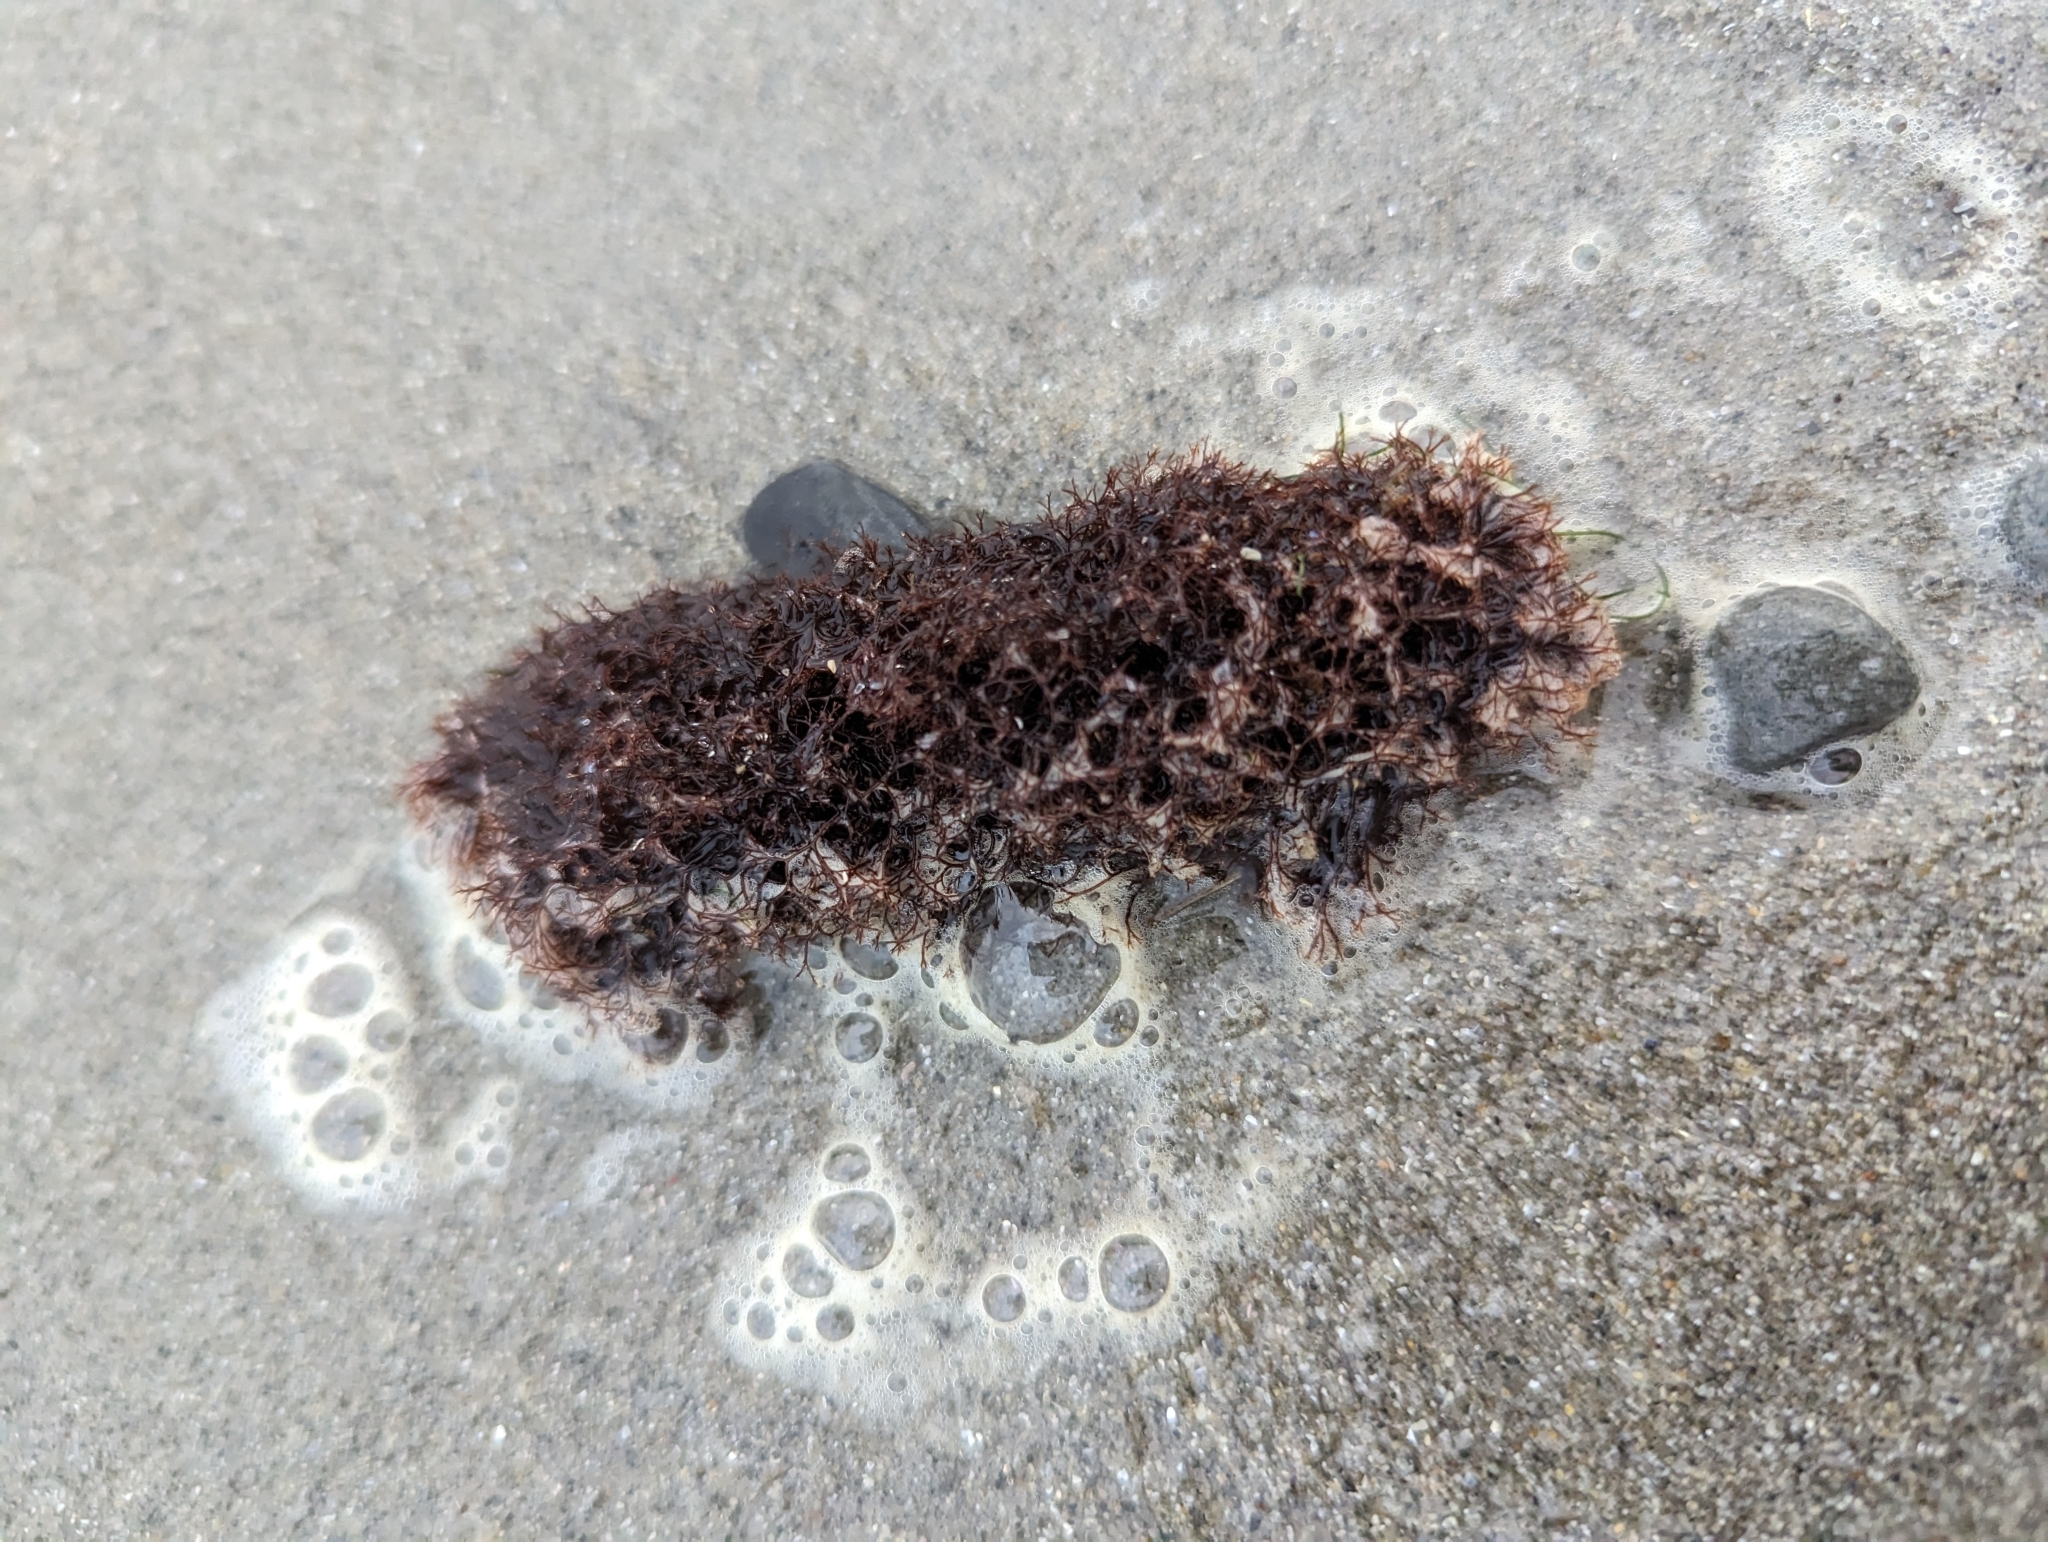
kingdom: Plantae
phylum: Rhodophyta
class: Florideophyceae
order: Ceramiales
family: Rhodomelaceae
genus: Vertebrata
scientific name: Vertebrata lanosa
